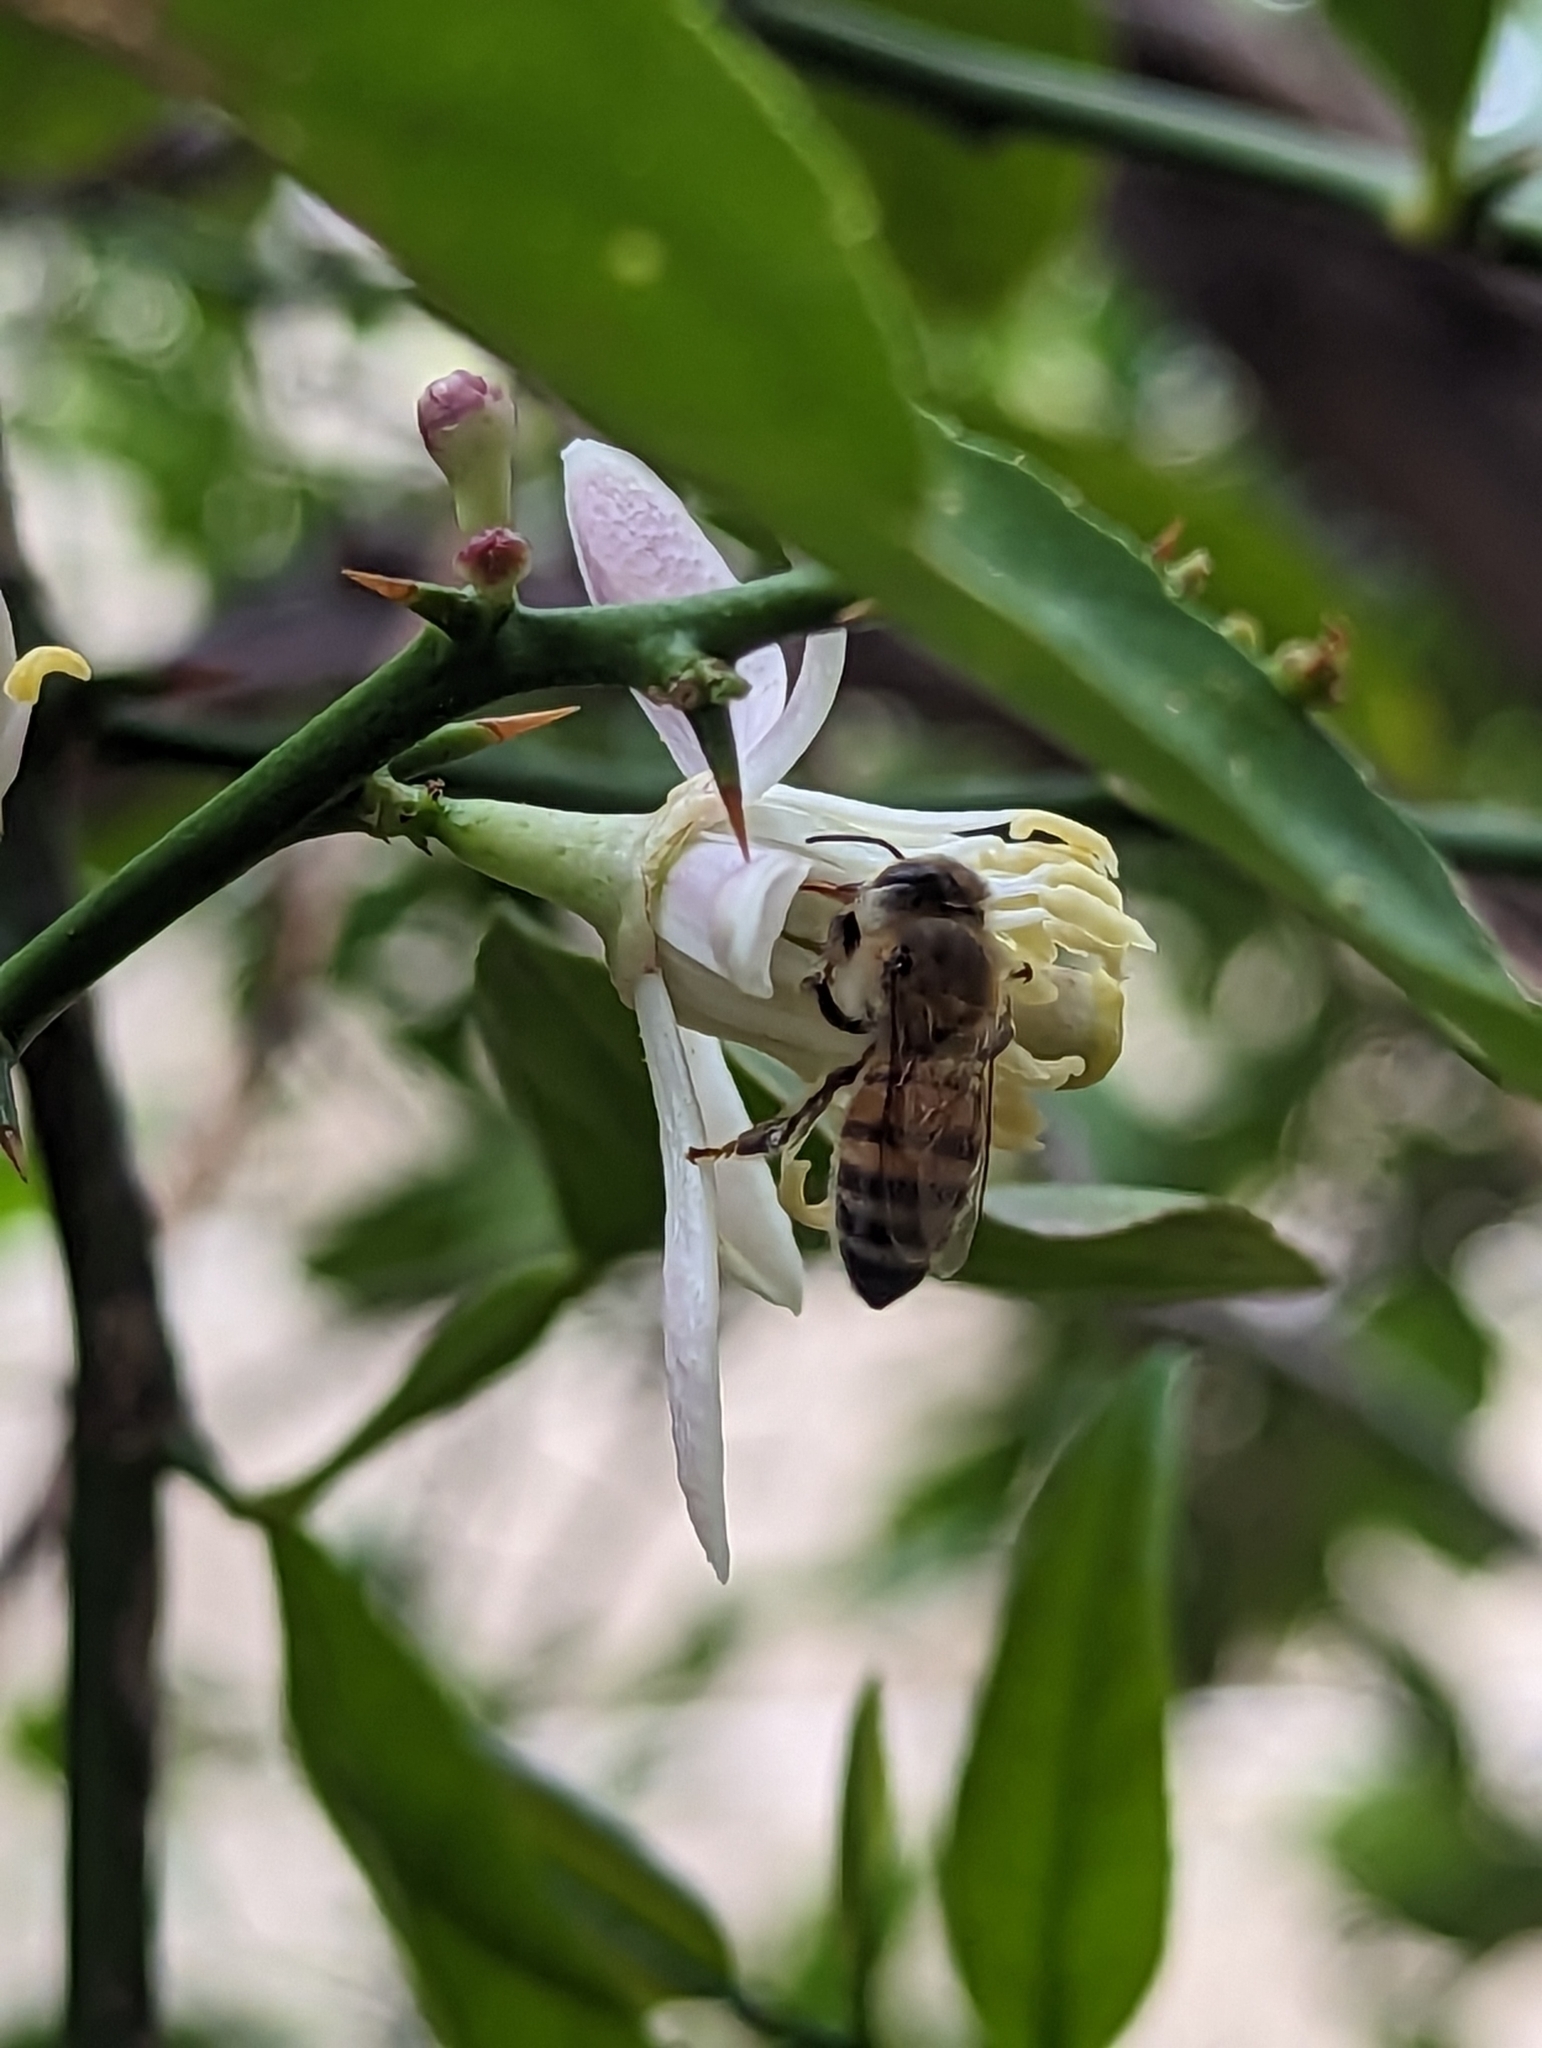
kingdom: Animalia
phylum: Arthropoda
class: Insecta
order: Hymenoptera
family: Apidae
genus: Apis
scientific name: Apis mellifera
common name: Honey bee
